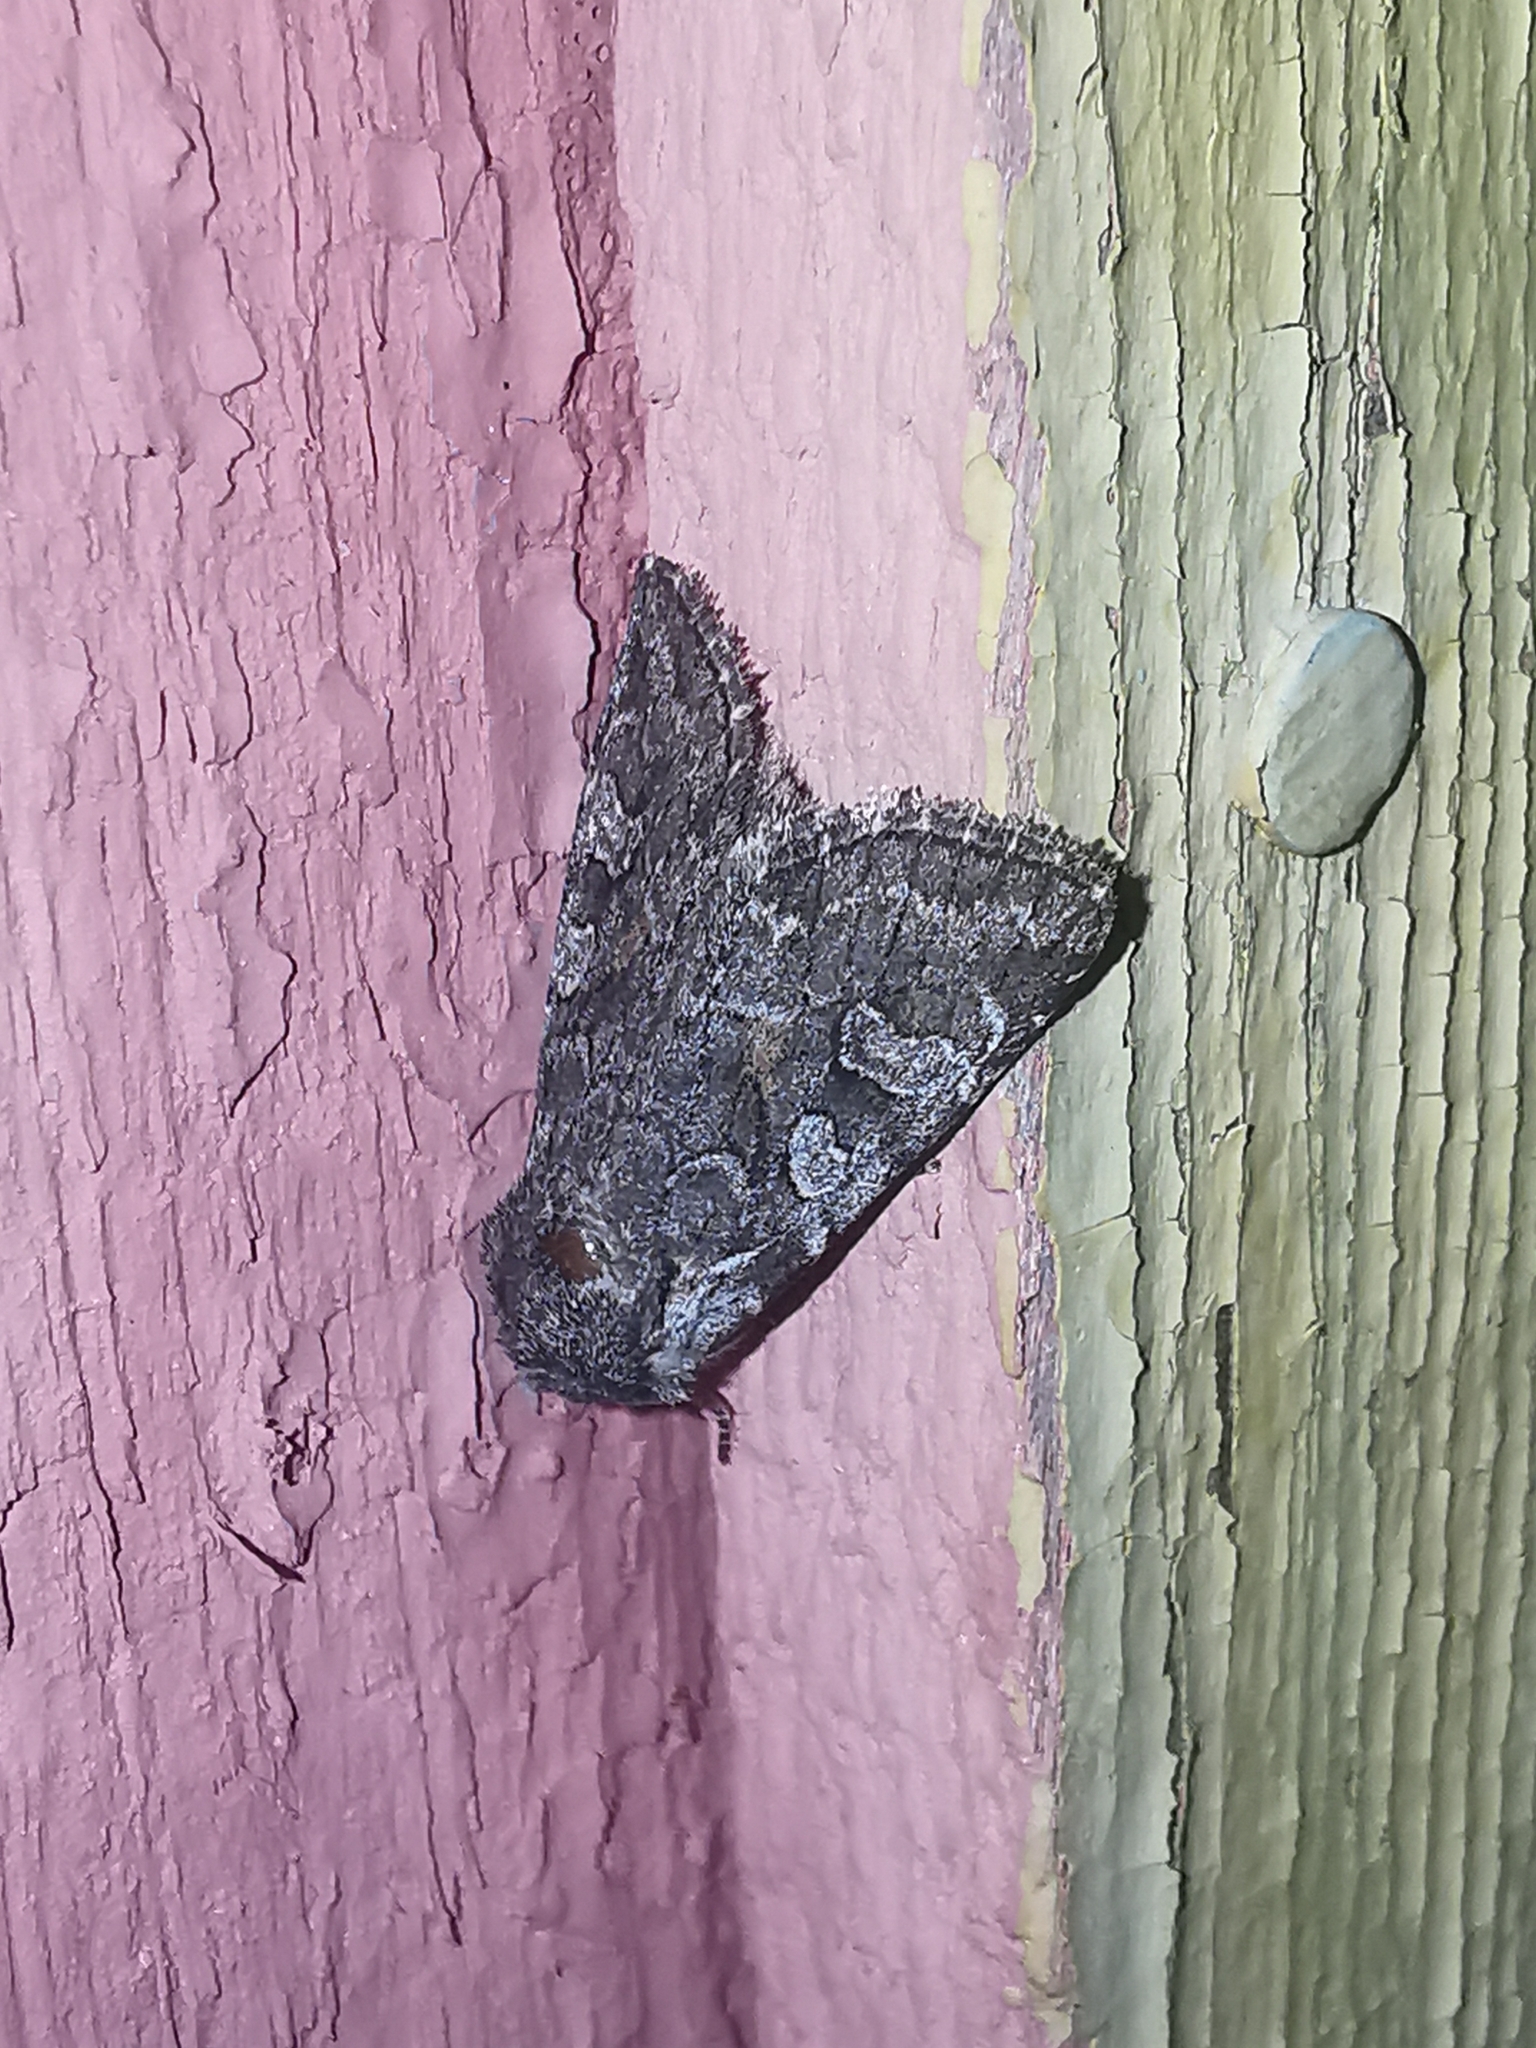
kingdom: Animalia
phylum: Arthropoda
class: Insecta
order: Lepidoptera
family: Noctuidae
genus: Lasionycta
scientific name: Lasionycta proxima
